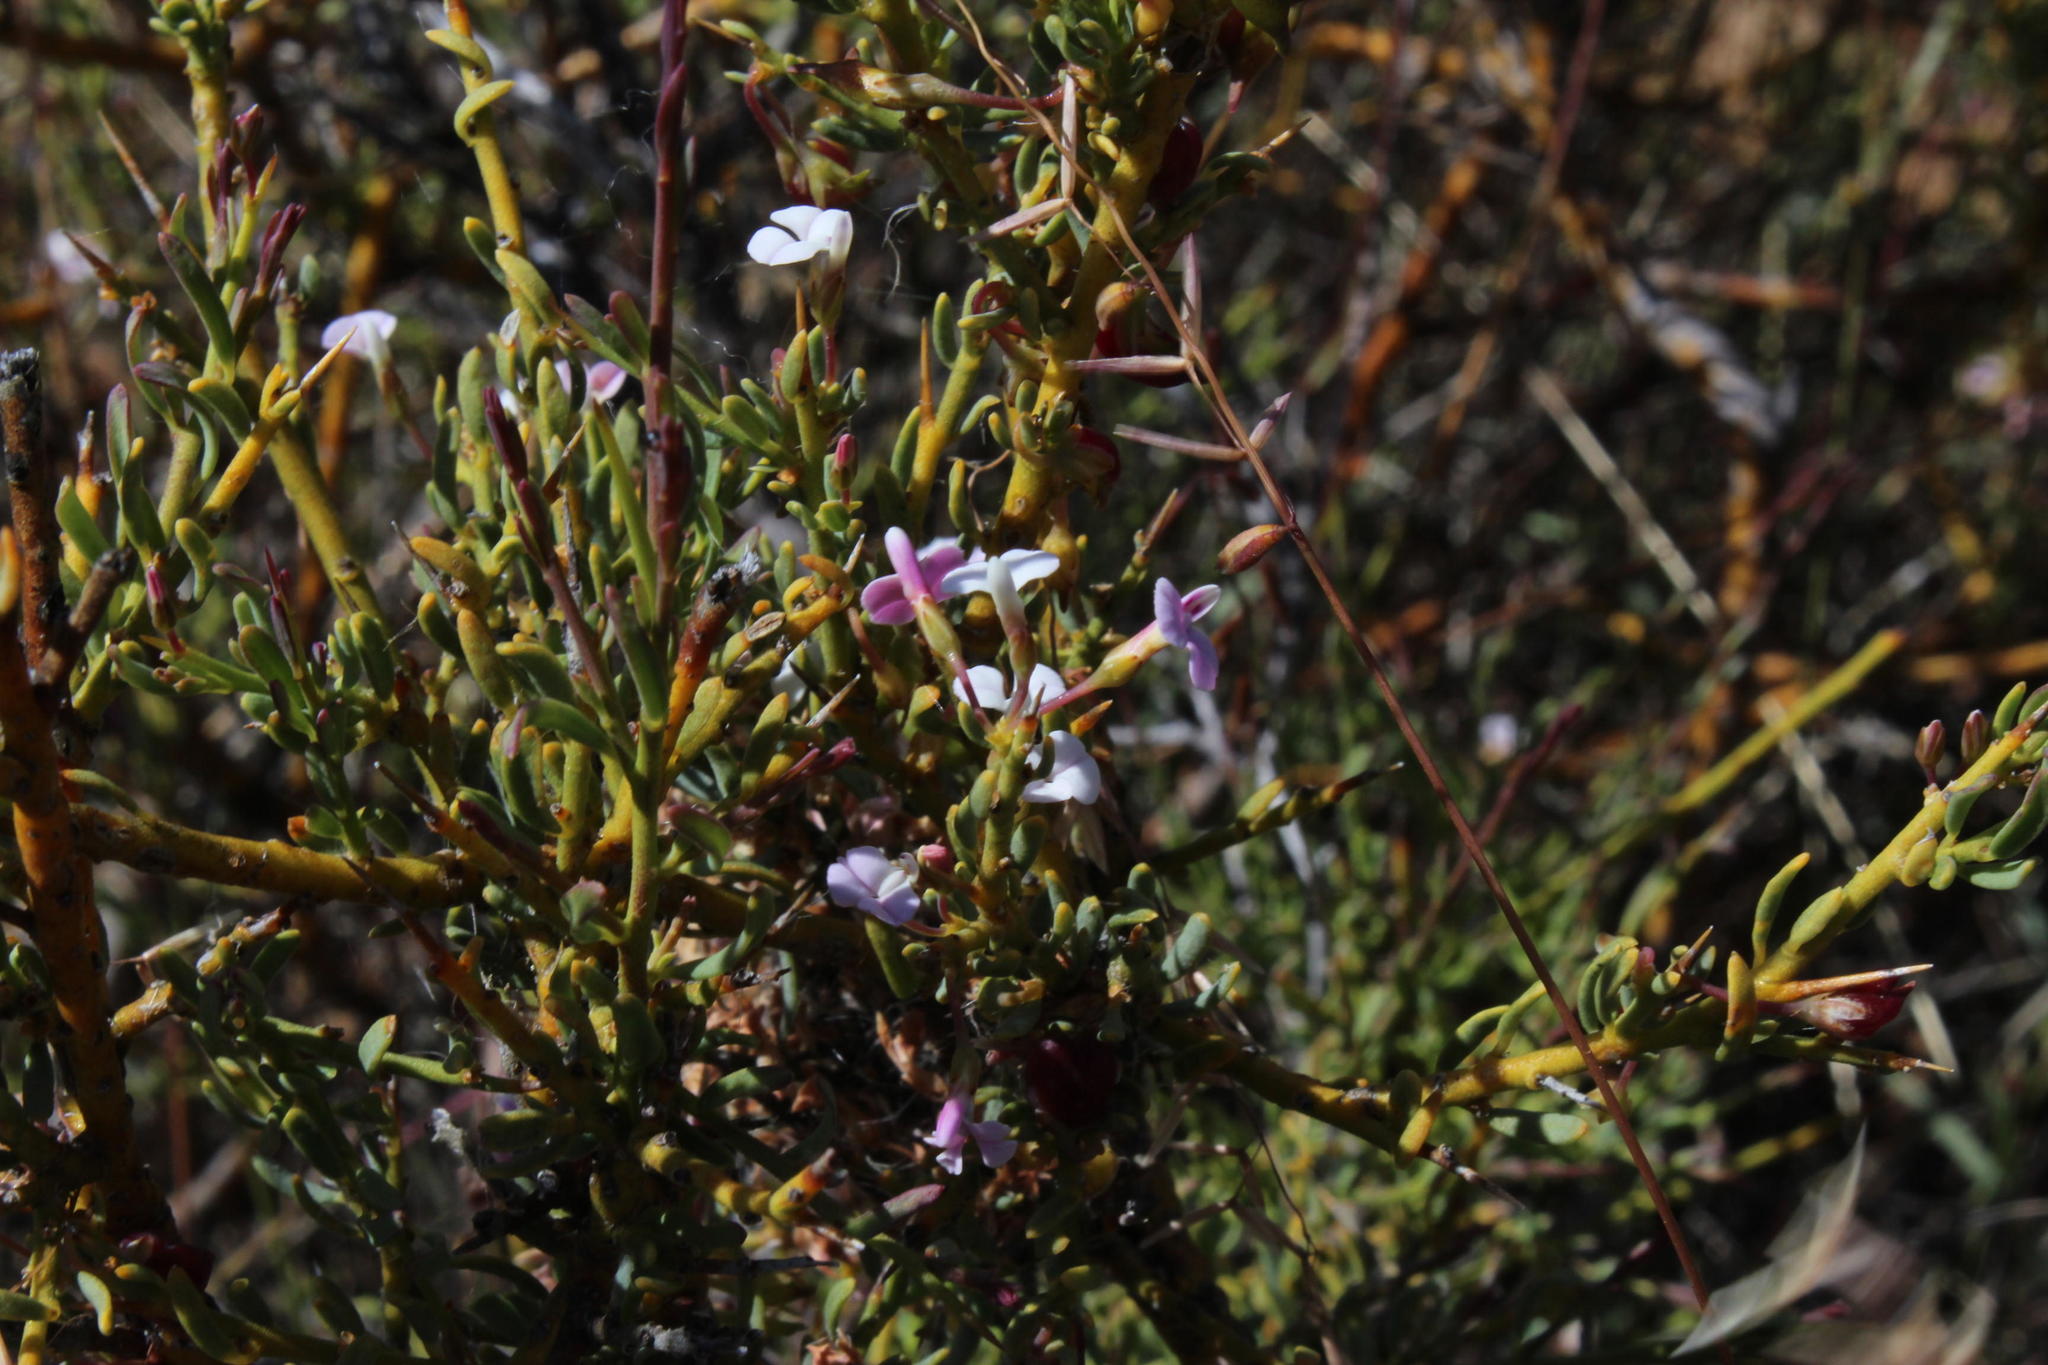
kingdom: Plantae
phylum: Tracheophyta
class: Magnoliopsida
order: Fabales
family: Polygalaceae
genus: Muraltia
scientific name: Muraltia horrida
